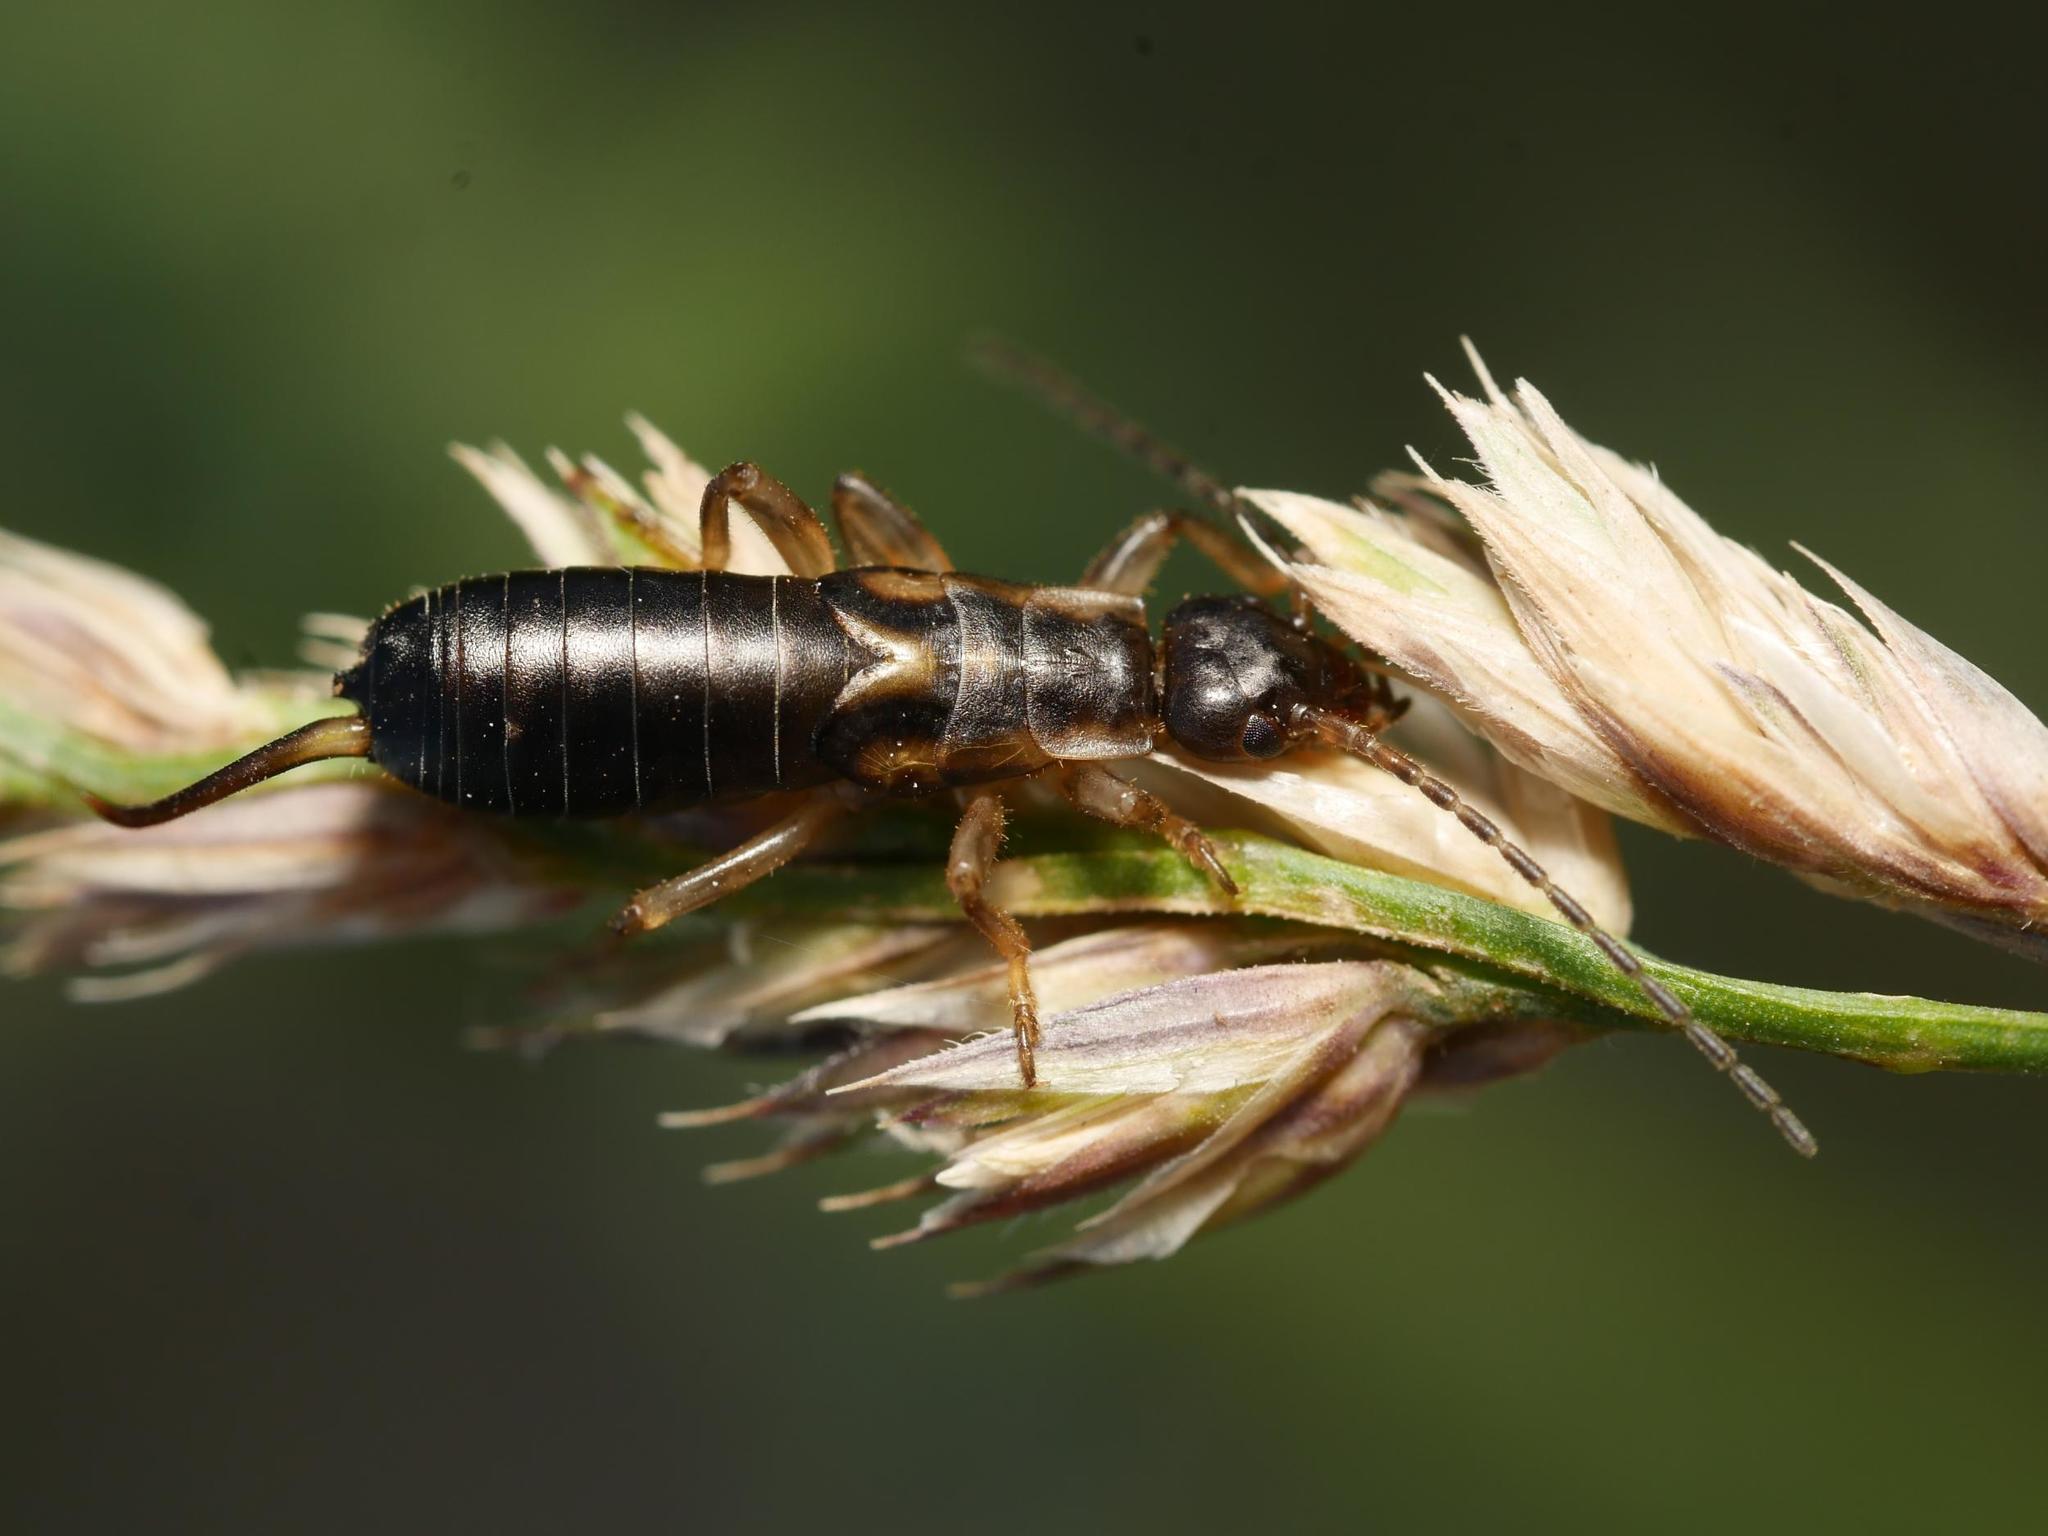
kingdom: Animalia
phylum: Arthropoda
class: Insecta
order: Dermaptera
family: Forficulidae
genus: Forficula
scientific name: Forficula
